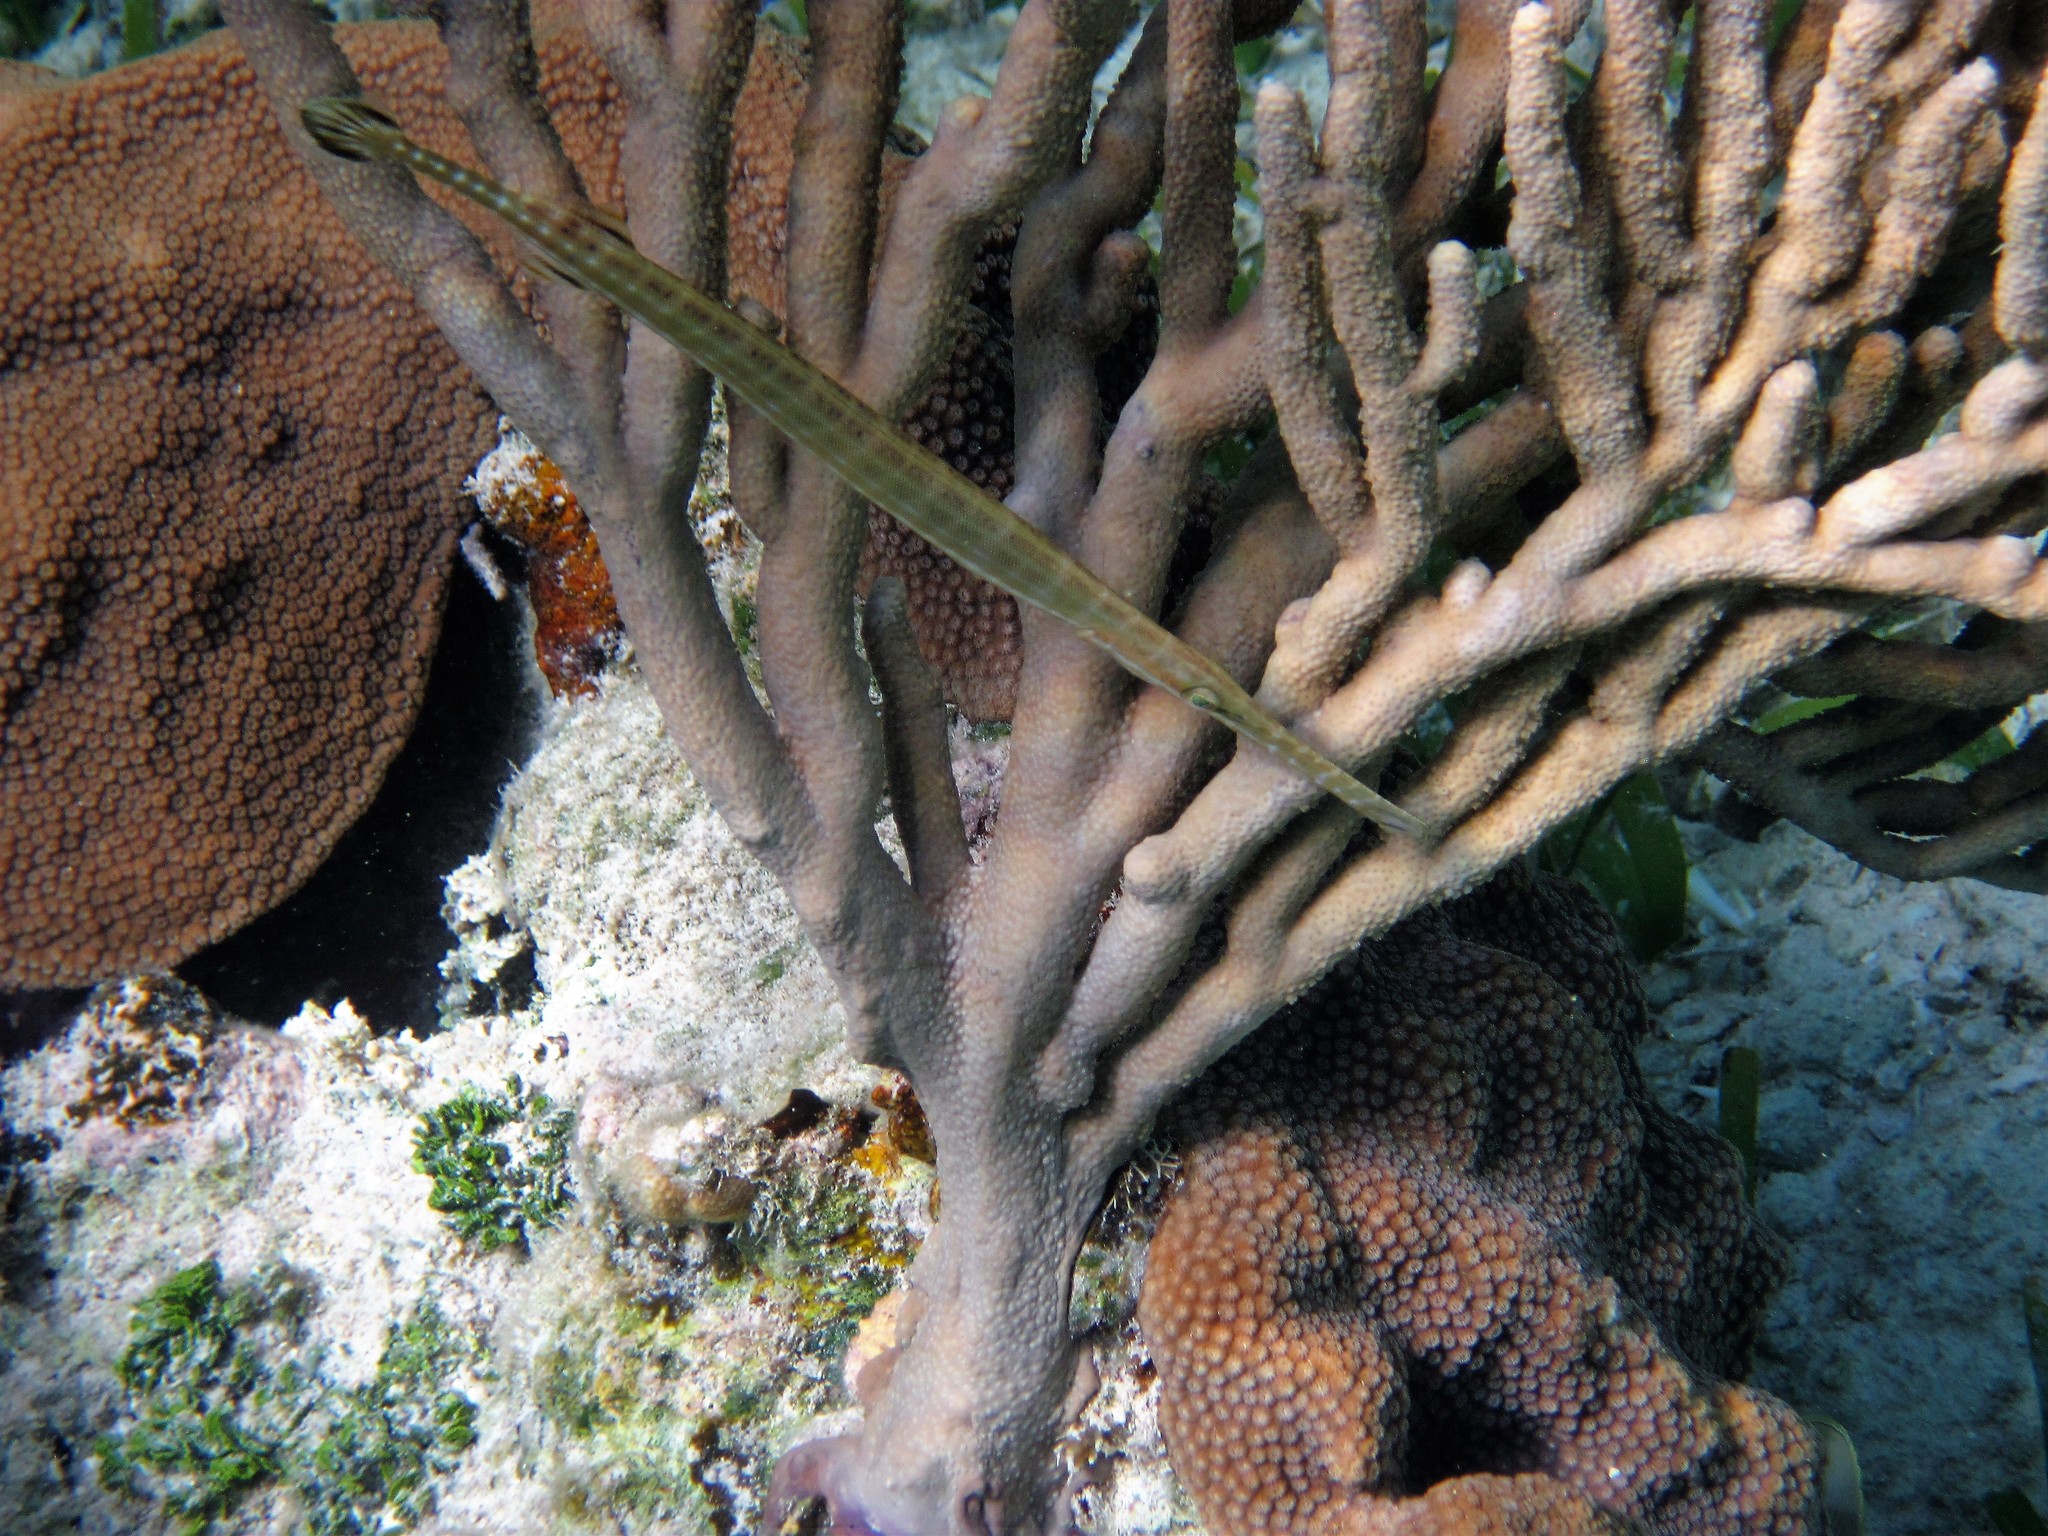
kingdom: Animalia
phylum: Chordata
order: Syngnathiformes
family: Aulostomidae
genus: Aulostomus
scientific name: Aulostomus maculatus
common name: West atlantic trumpetfish
